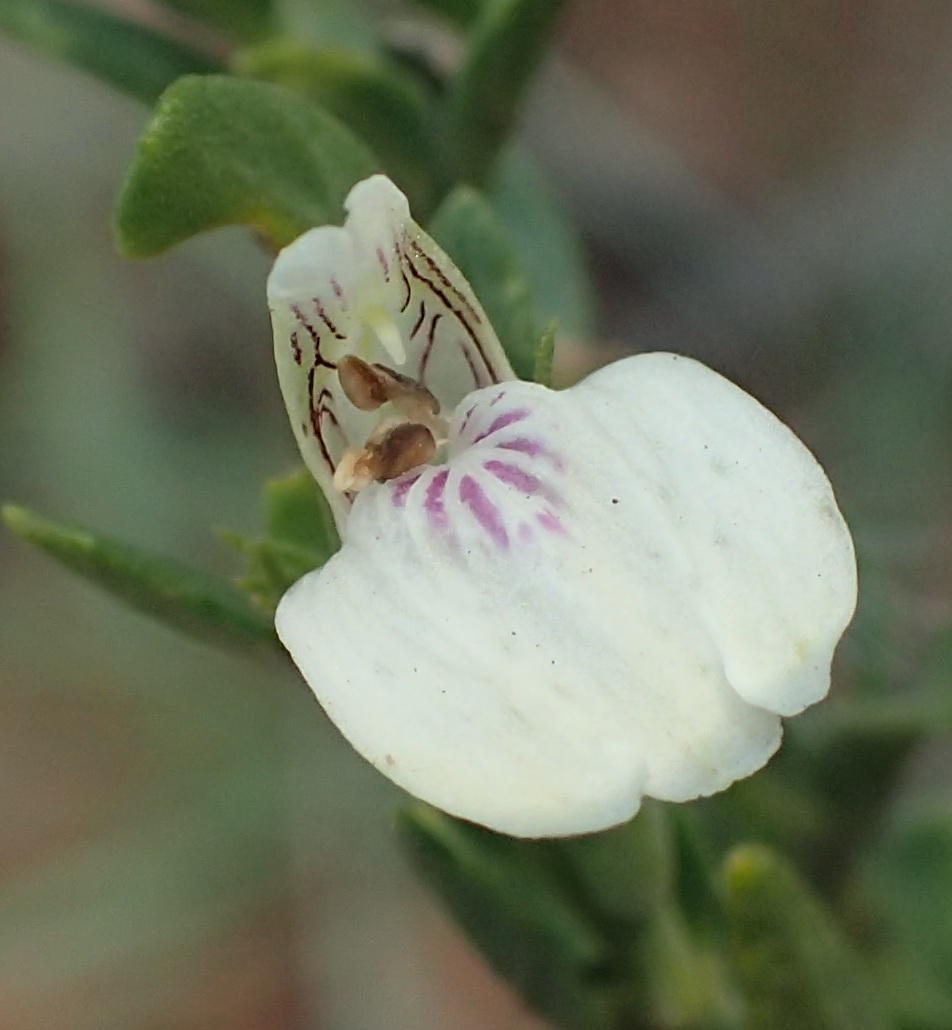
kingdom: Plantae
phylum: Tracheophyta
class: Magnoliopsida
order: Lamiales
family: Acanthaceae
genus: Isoglossa
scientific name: Isoglossa grantii
